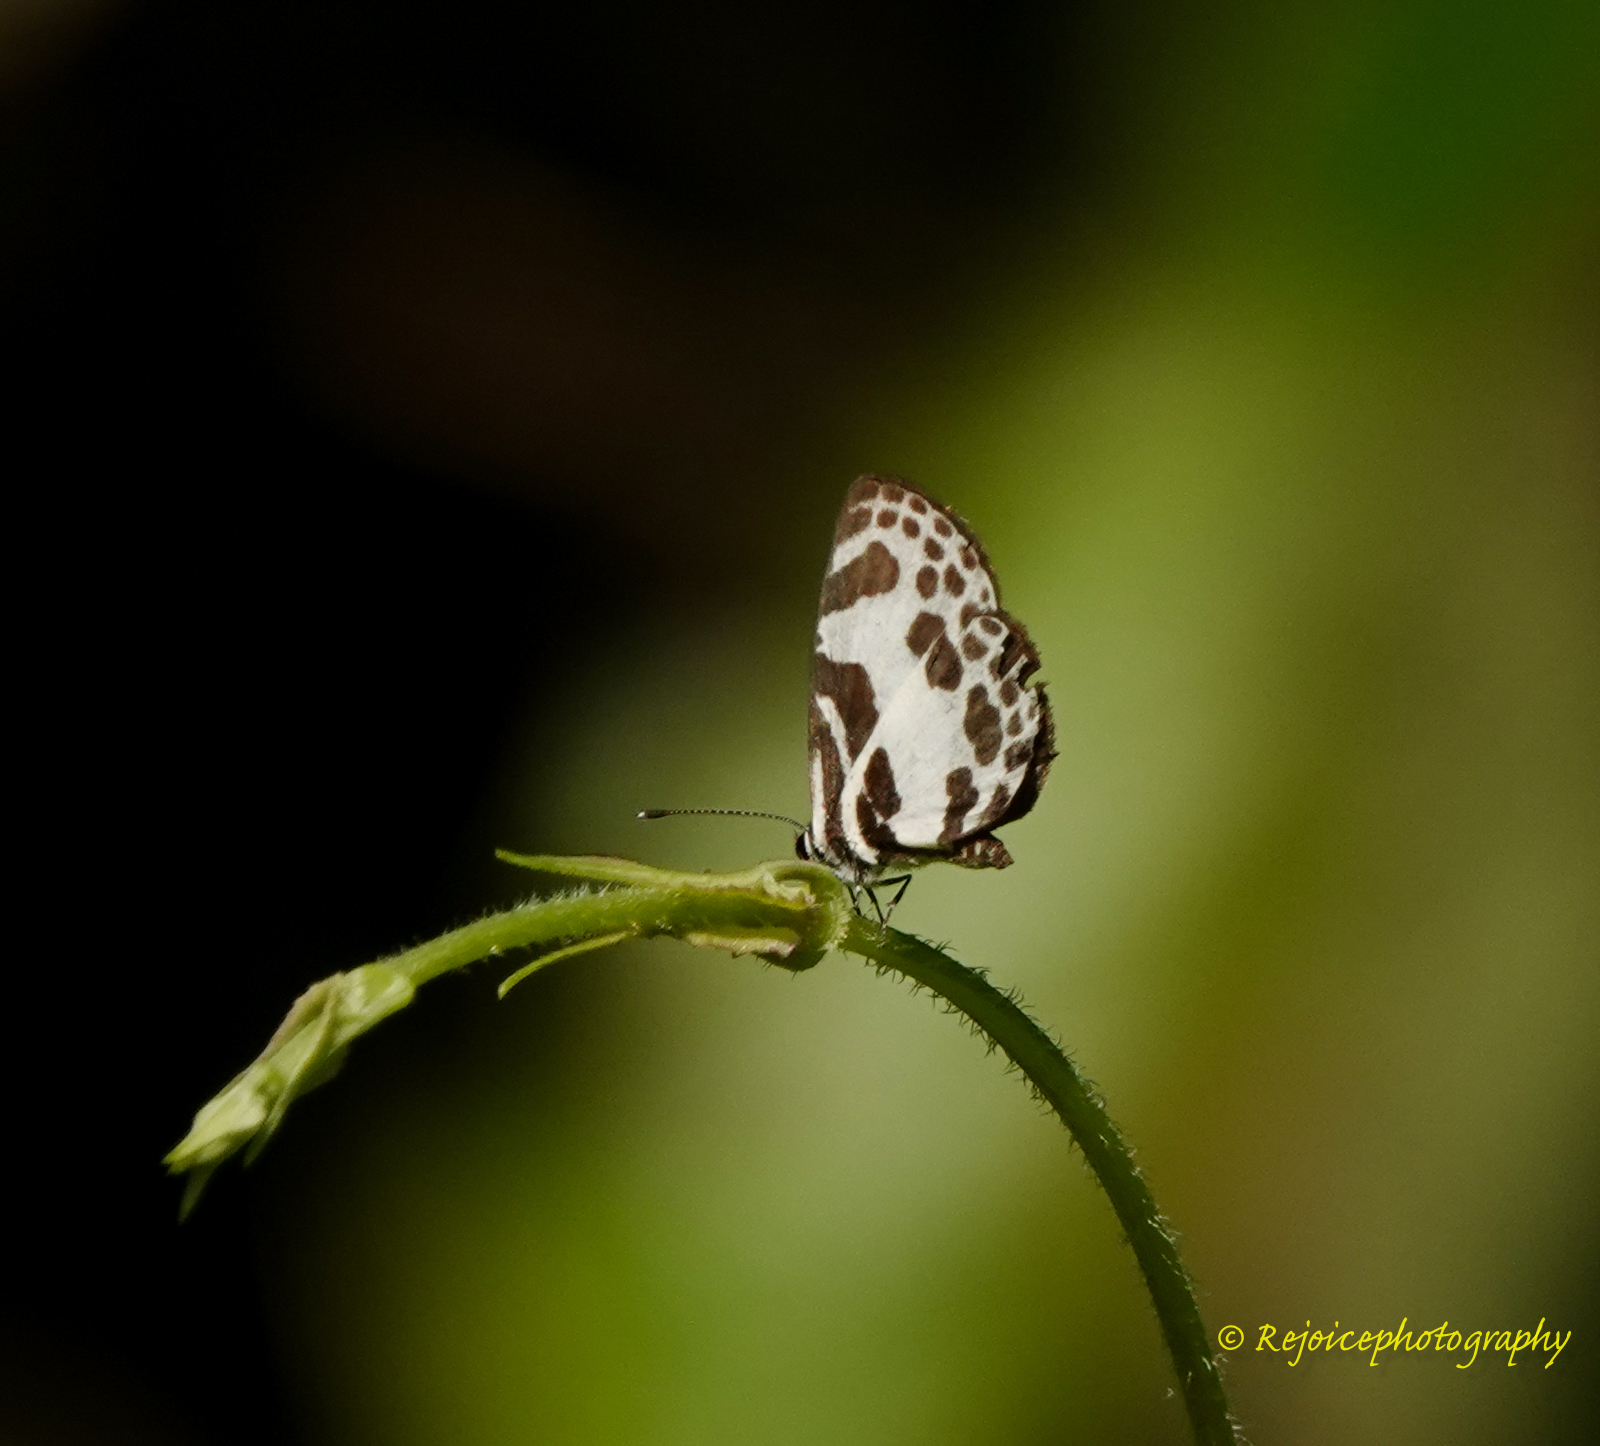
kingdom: Animalia
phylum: Arthropoda
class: Insecta
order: Lepidoptera
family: Lycaenidae
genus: Discolampa
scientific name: Discolampa ethion
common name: Banded blue pierrot
